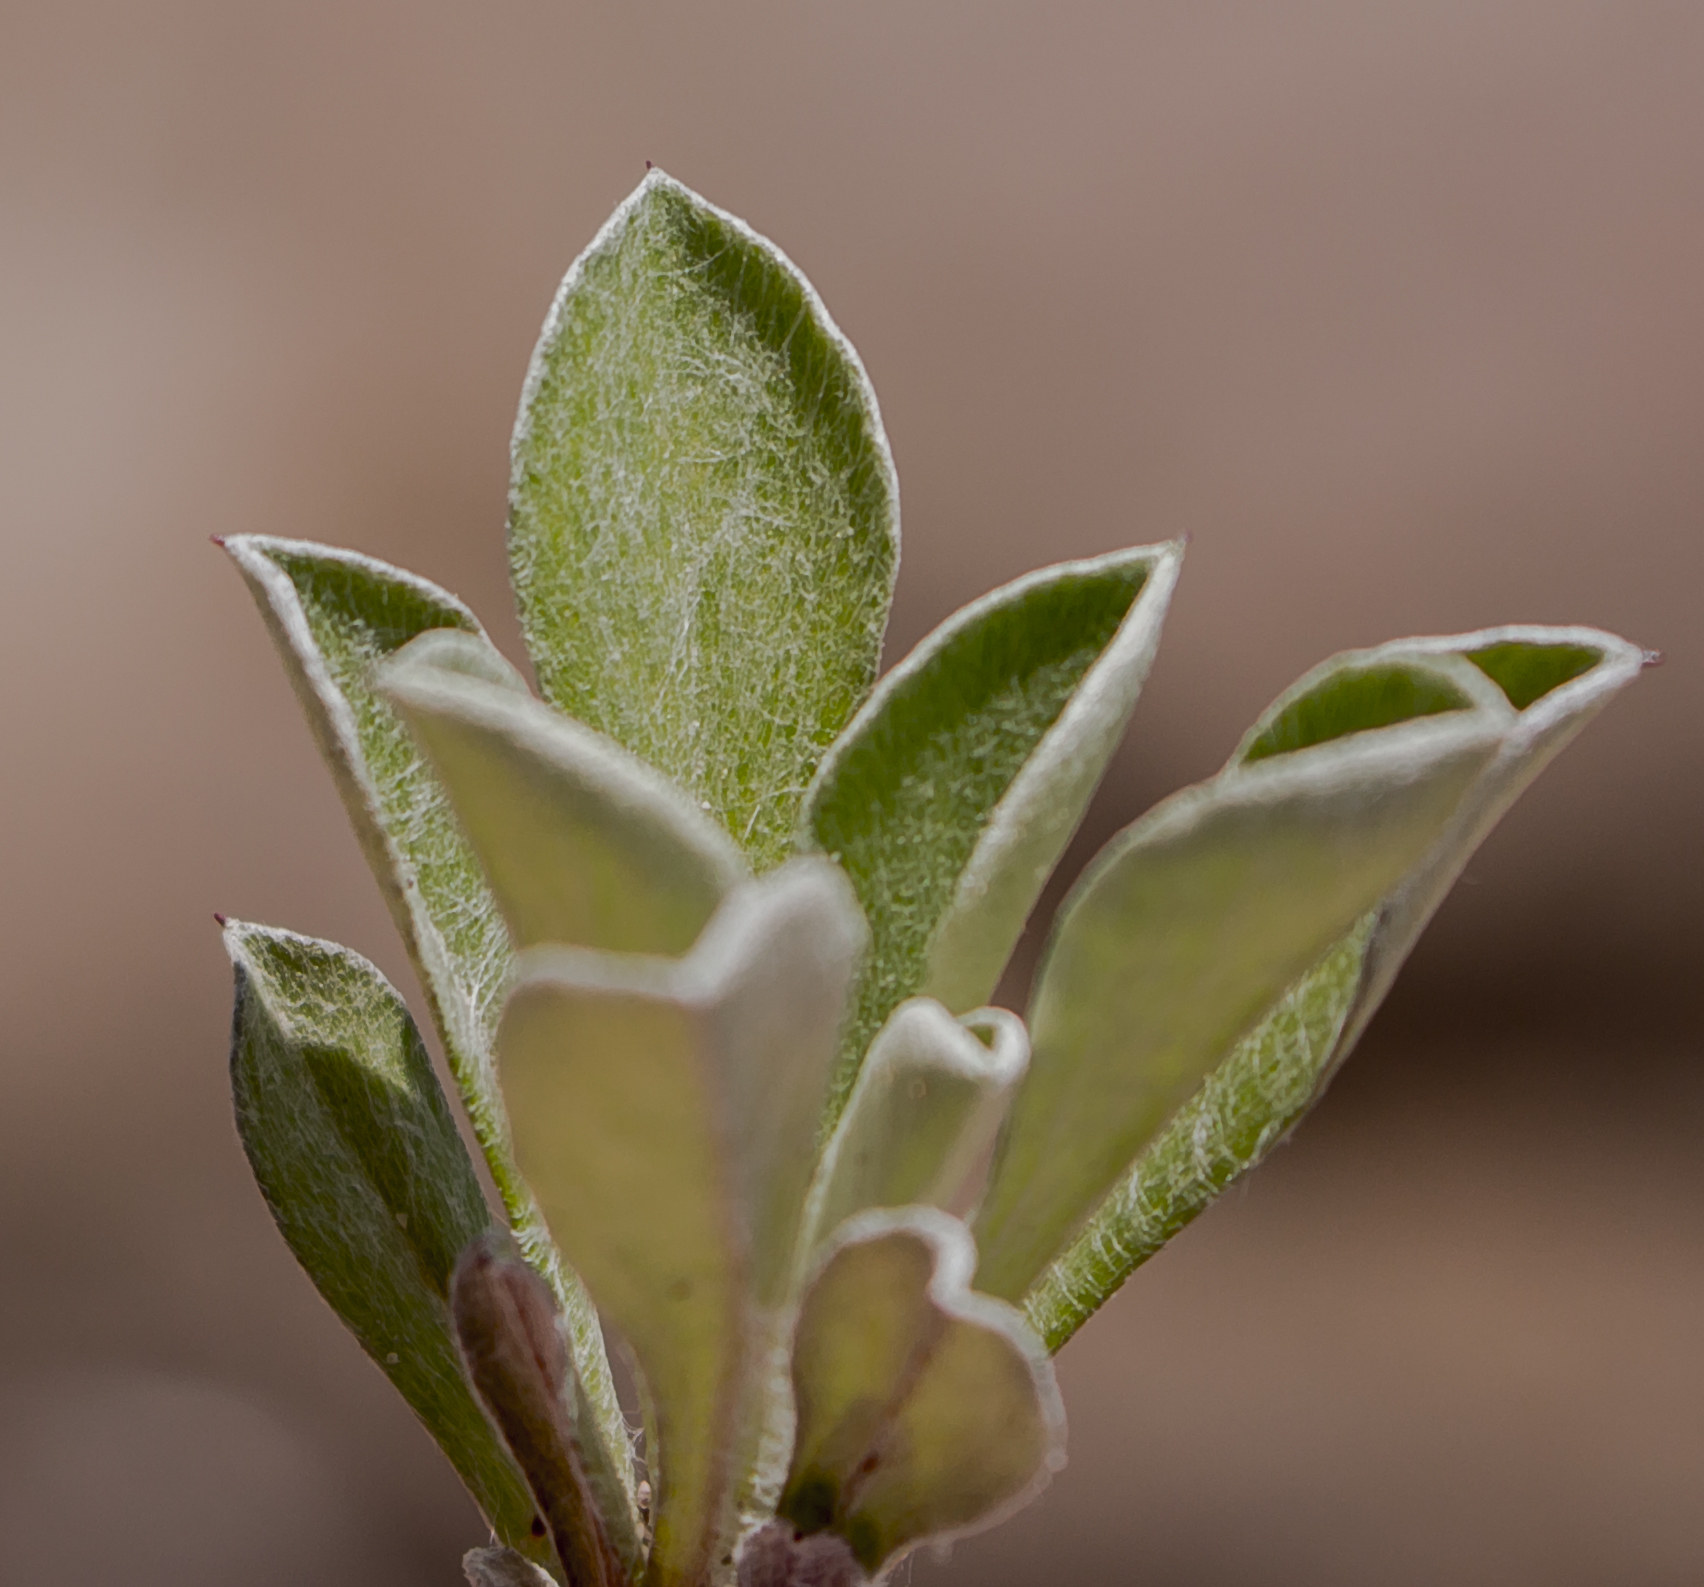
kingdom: Plantae
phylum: Tracheophyta
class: Magnoliopsida
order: Asterales
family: Asteraceae
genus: Antennaria
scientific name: Antennaria howellii
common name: Howell's pussytoes
